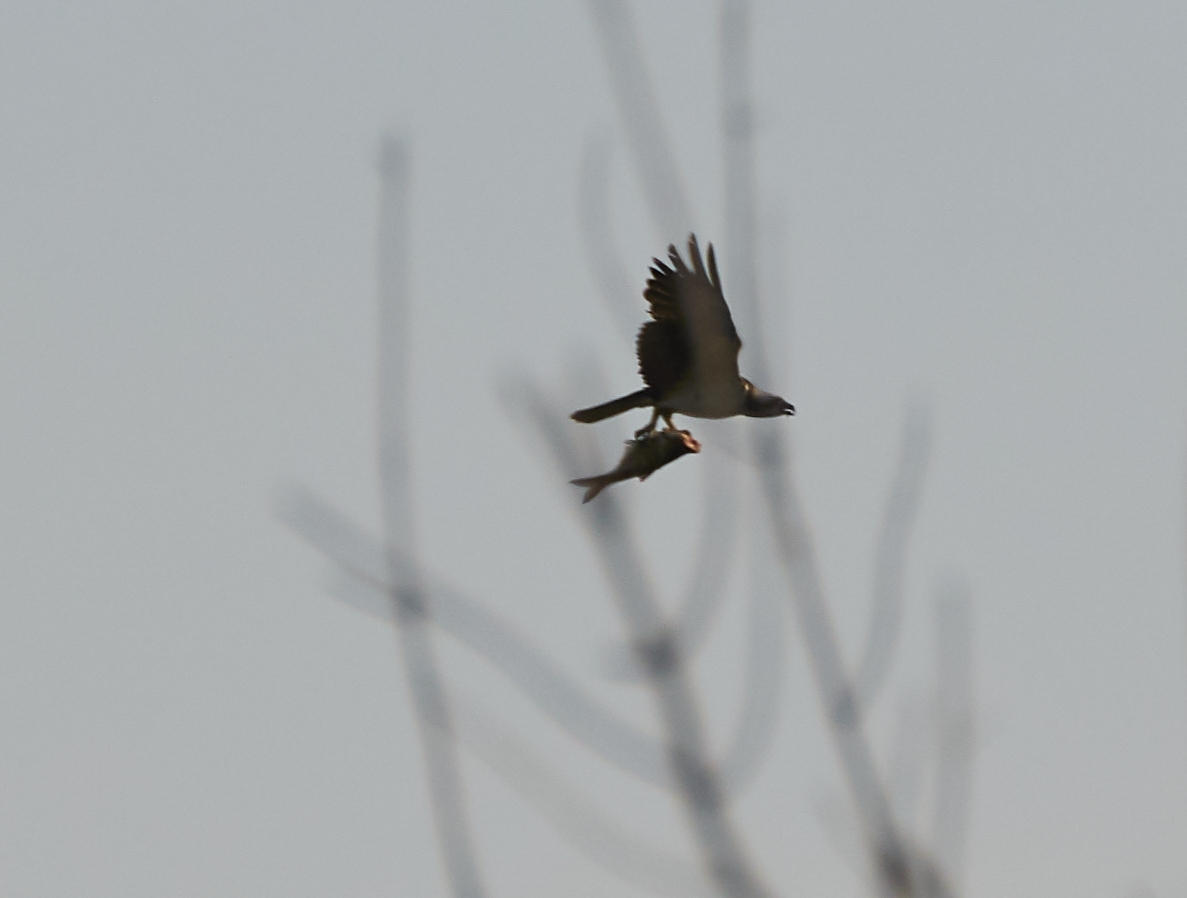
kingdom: Animalia
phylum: Chordata
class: Aves
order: Accipitriformes
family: Pandionidae
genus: Pandion
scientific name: Pandion haliaetus
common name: Osprey
